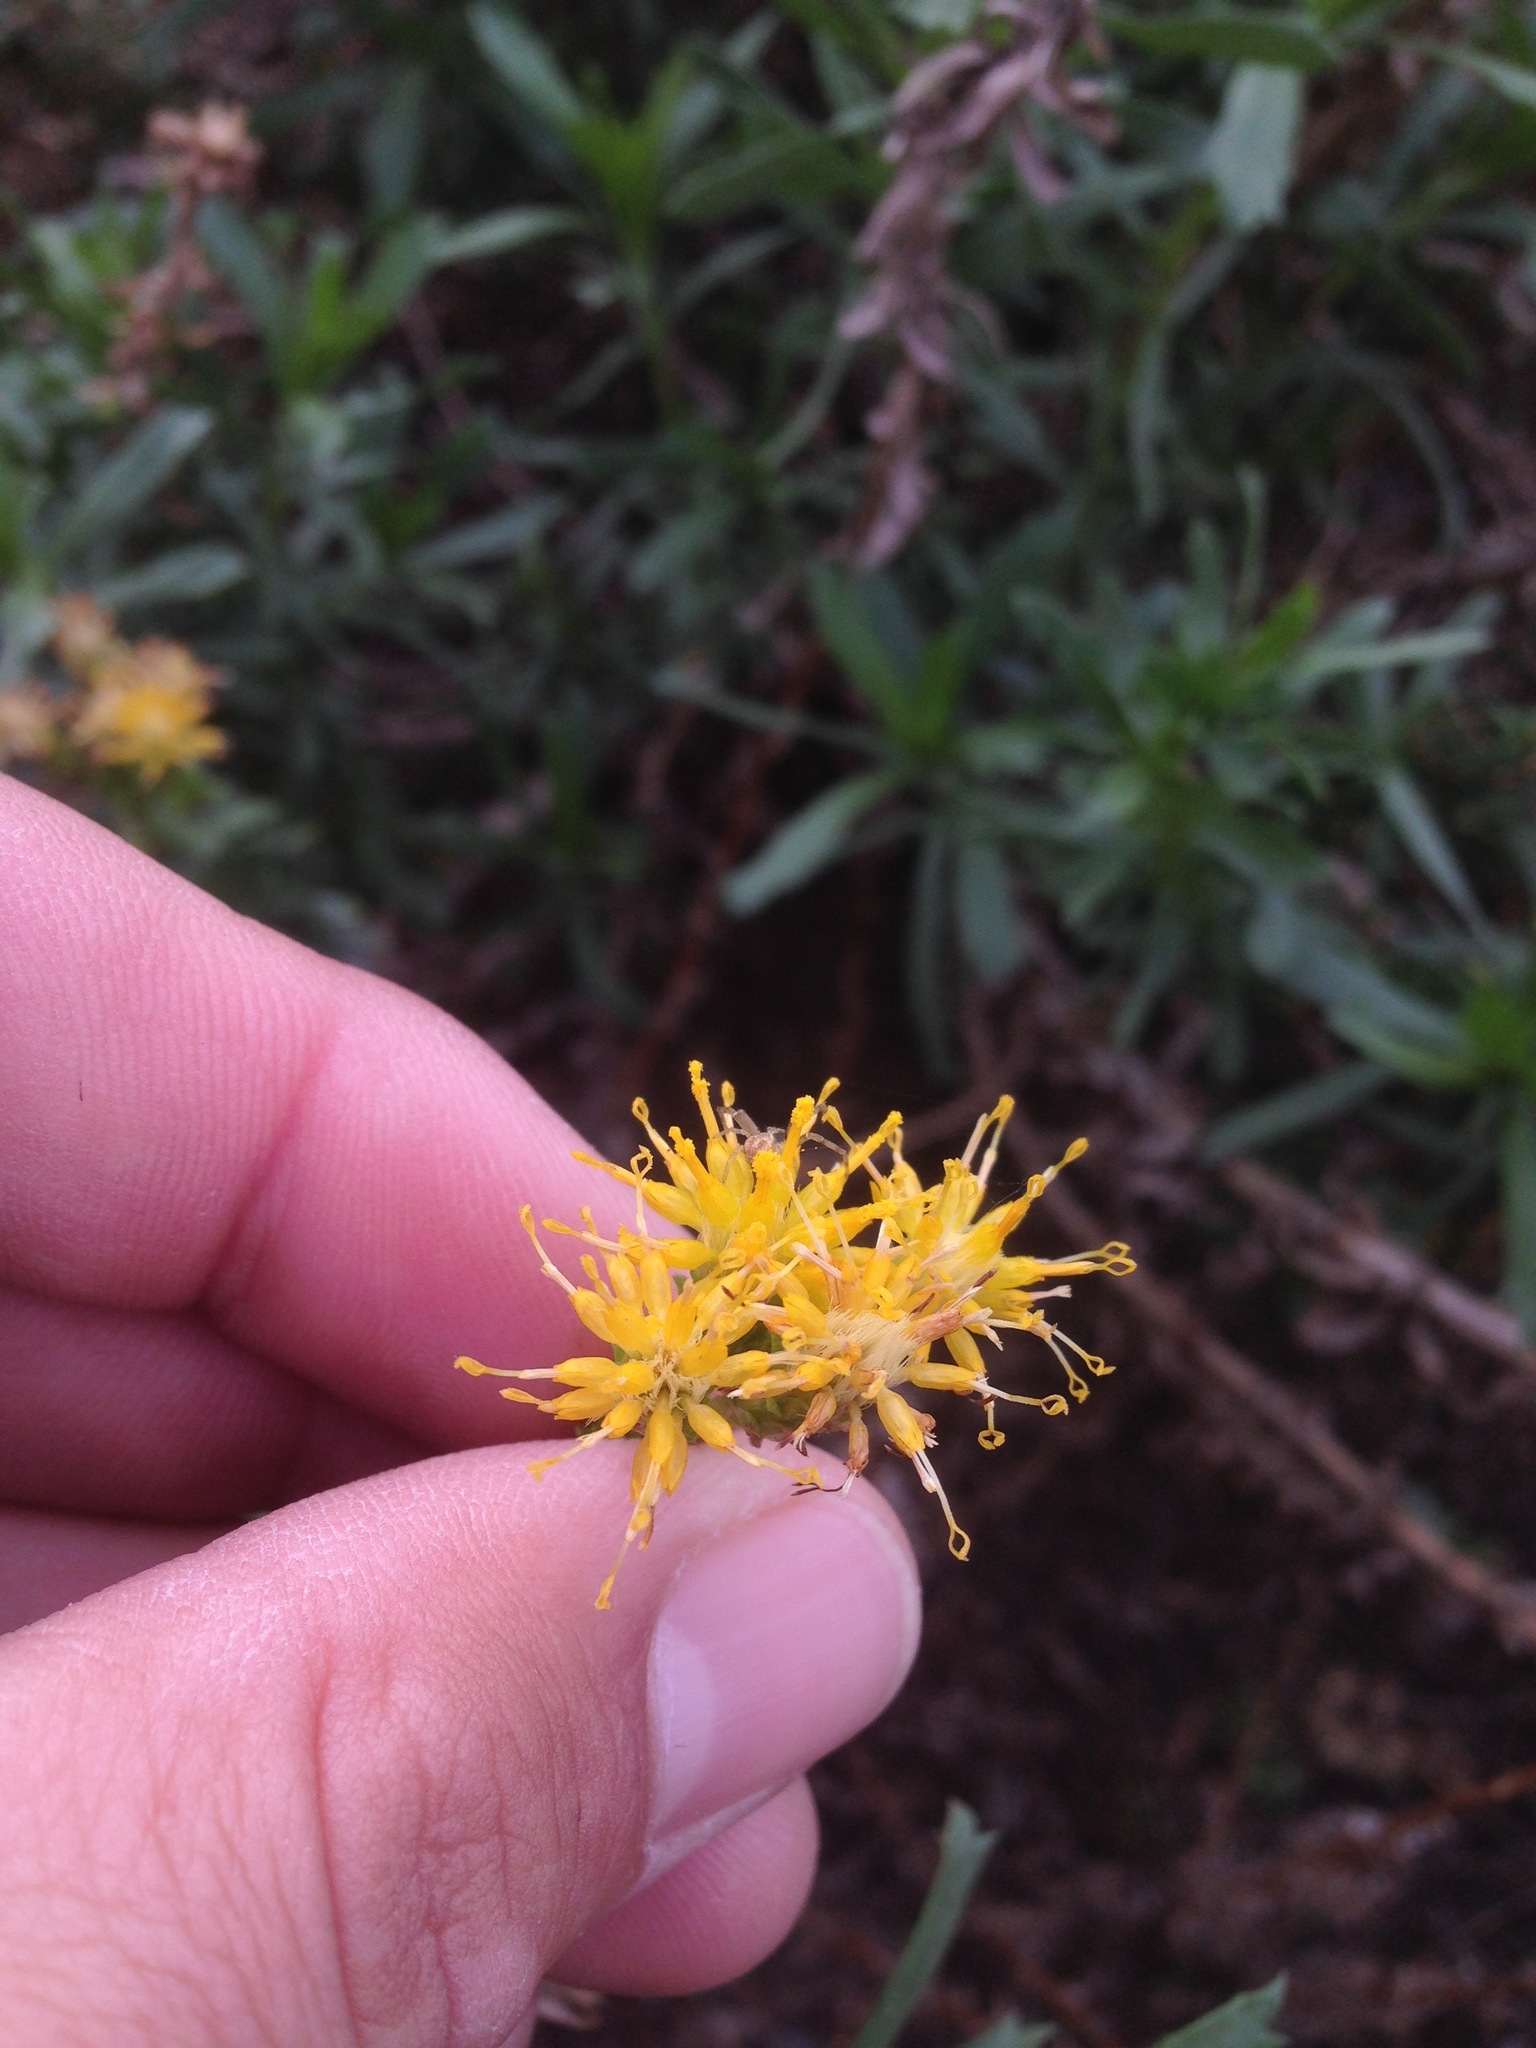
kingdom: Plantae
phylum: Tracheophyta
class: Magnoliopsida
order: Asterales
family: Asteraceae
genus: Isocoma
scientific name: Isocoma menziesii
